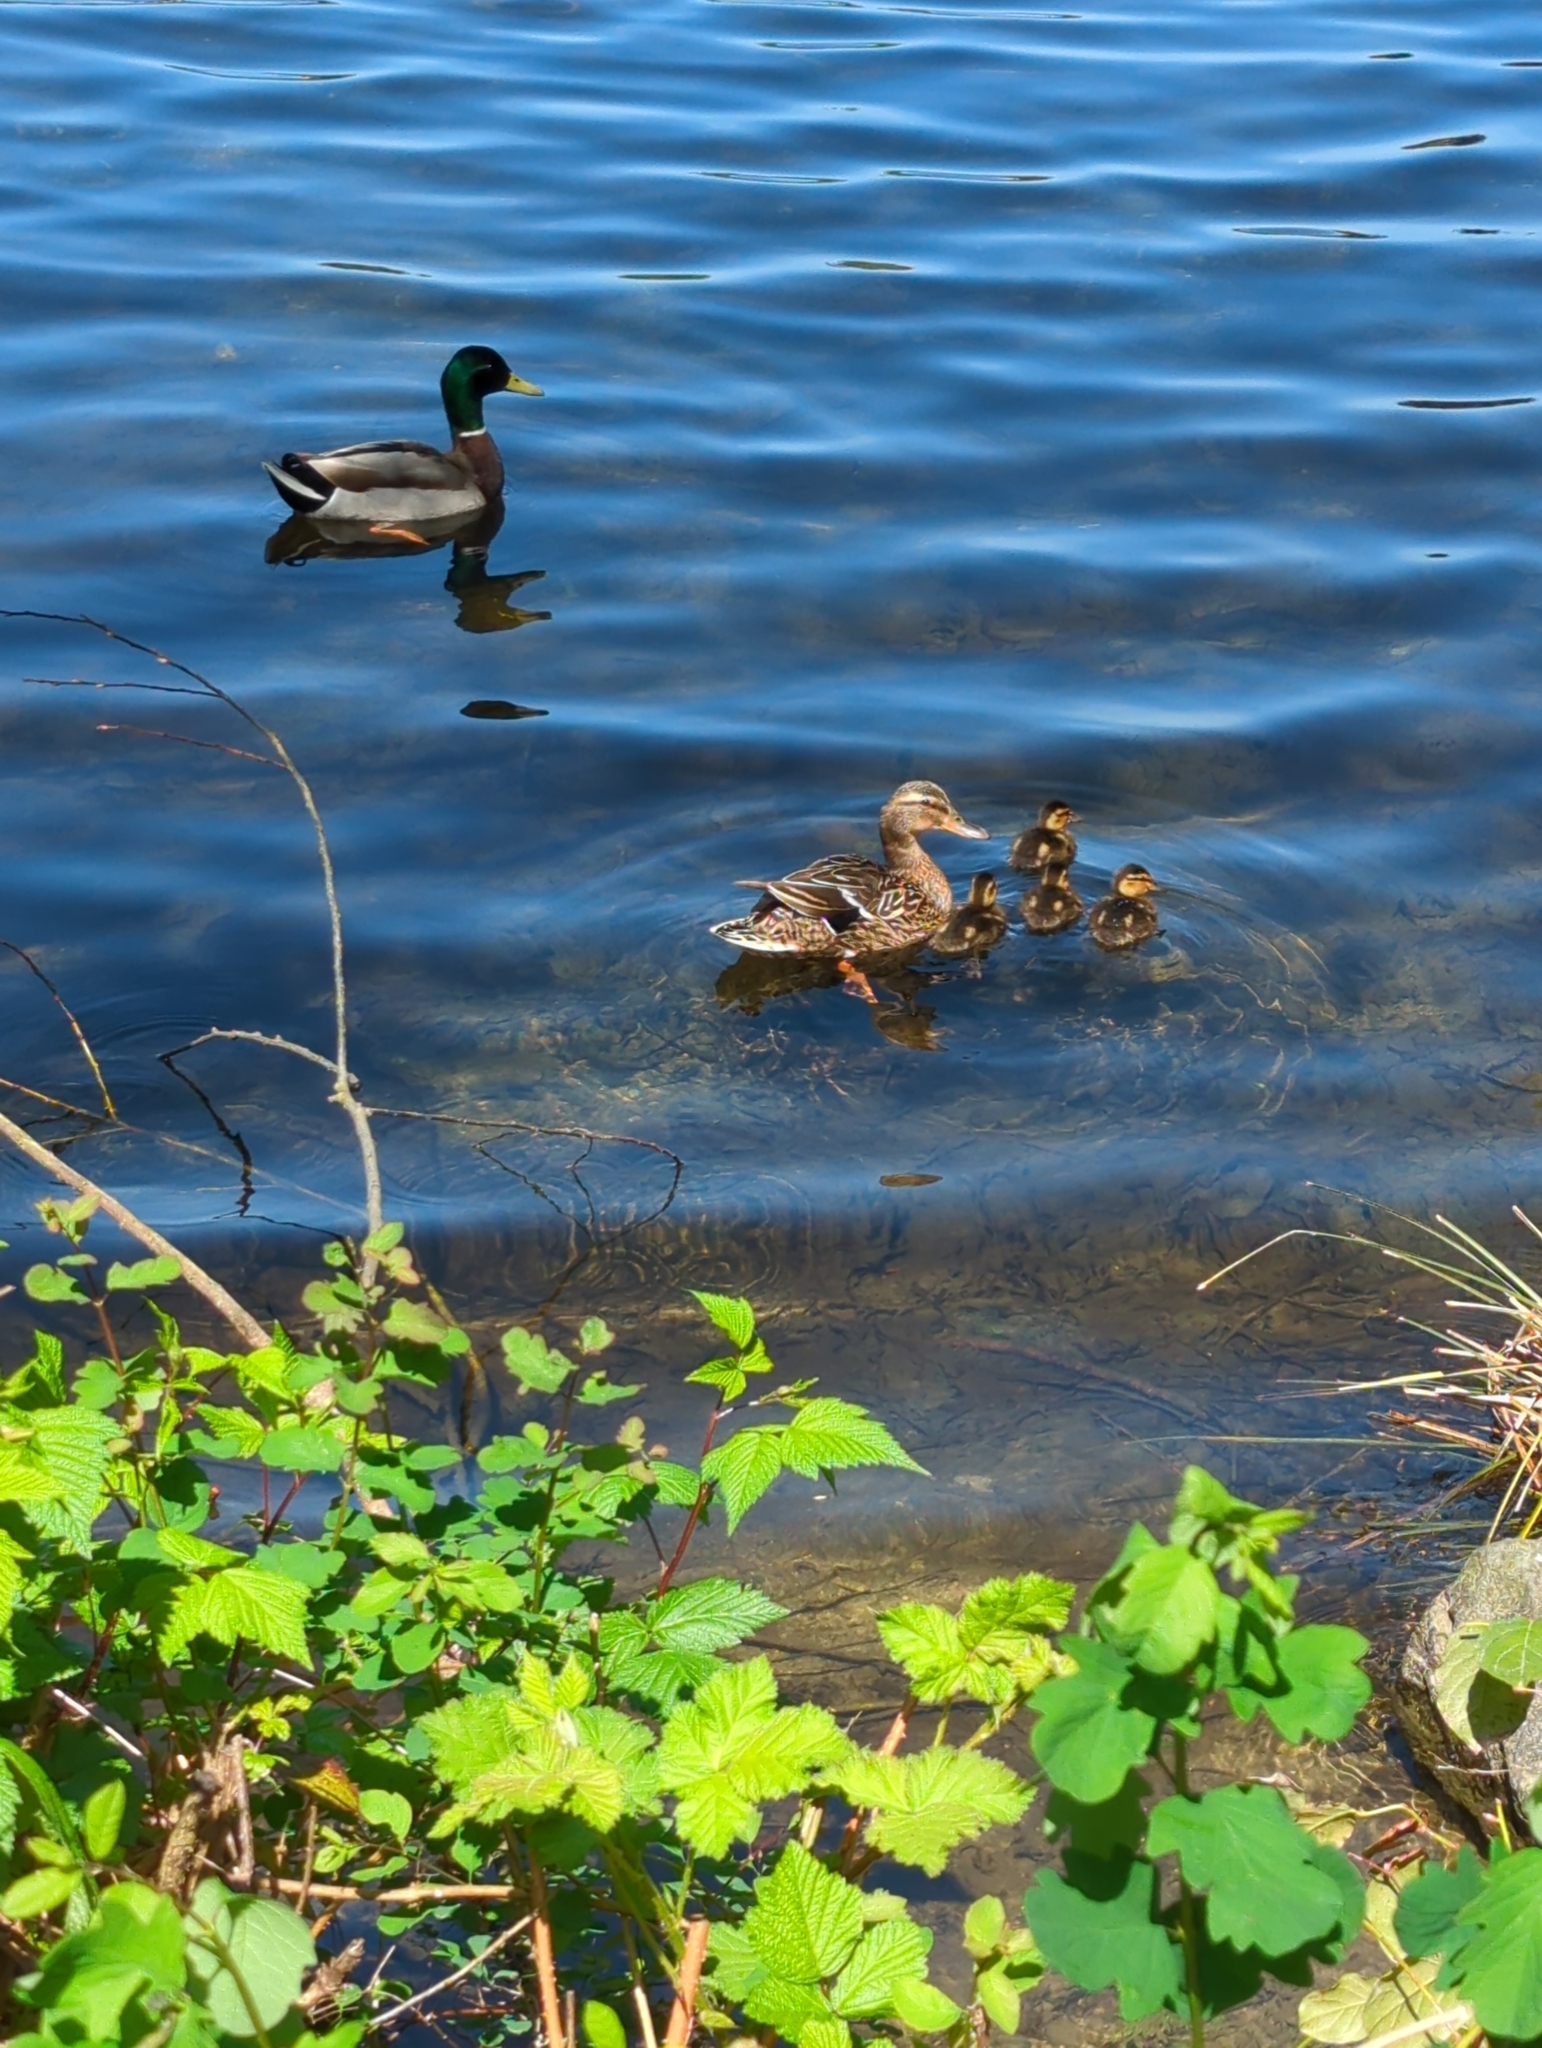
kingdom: Animalia
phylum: Chordata
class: Aves
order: Anseriformes
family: Anatidae
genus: Anas
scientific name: Anas platyrhynchos
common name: Mallard
